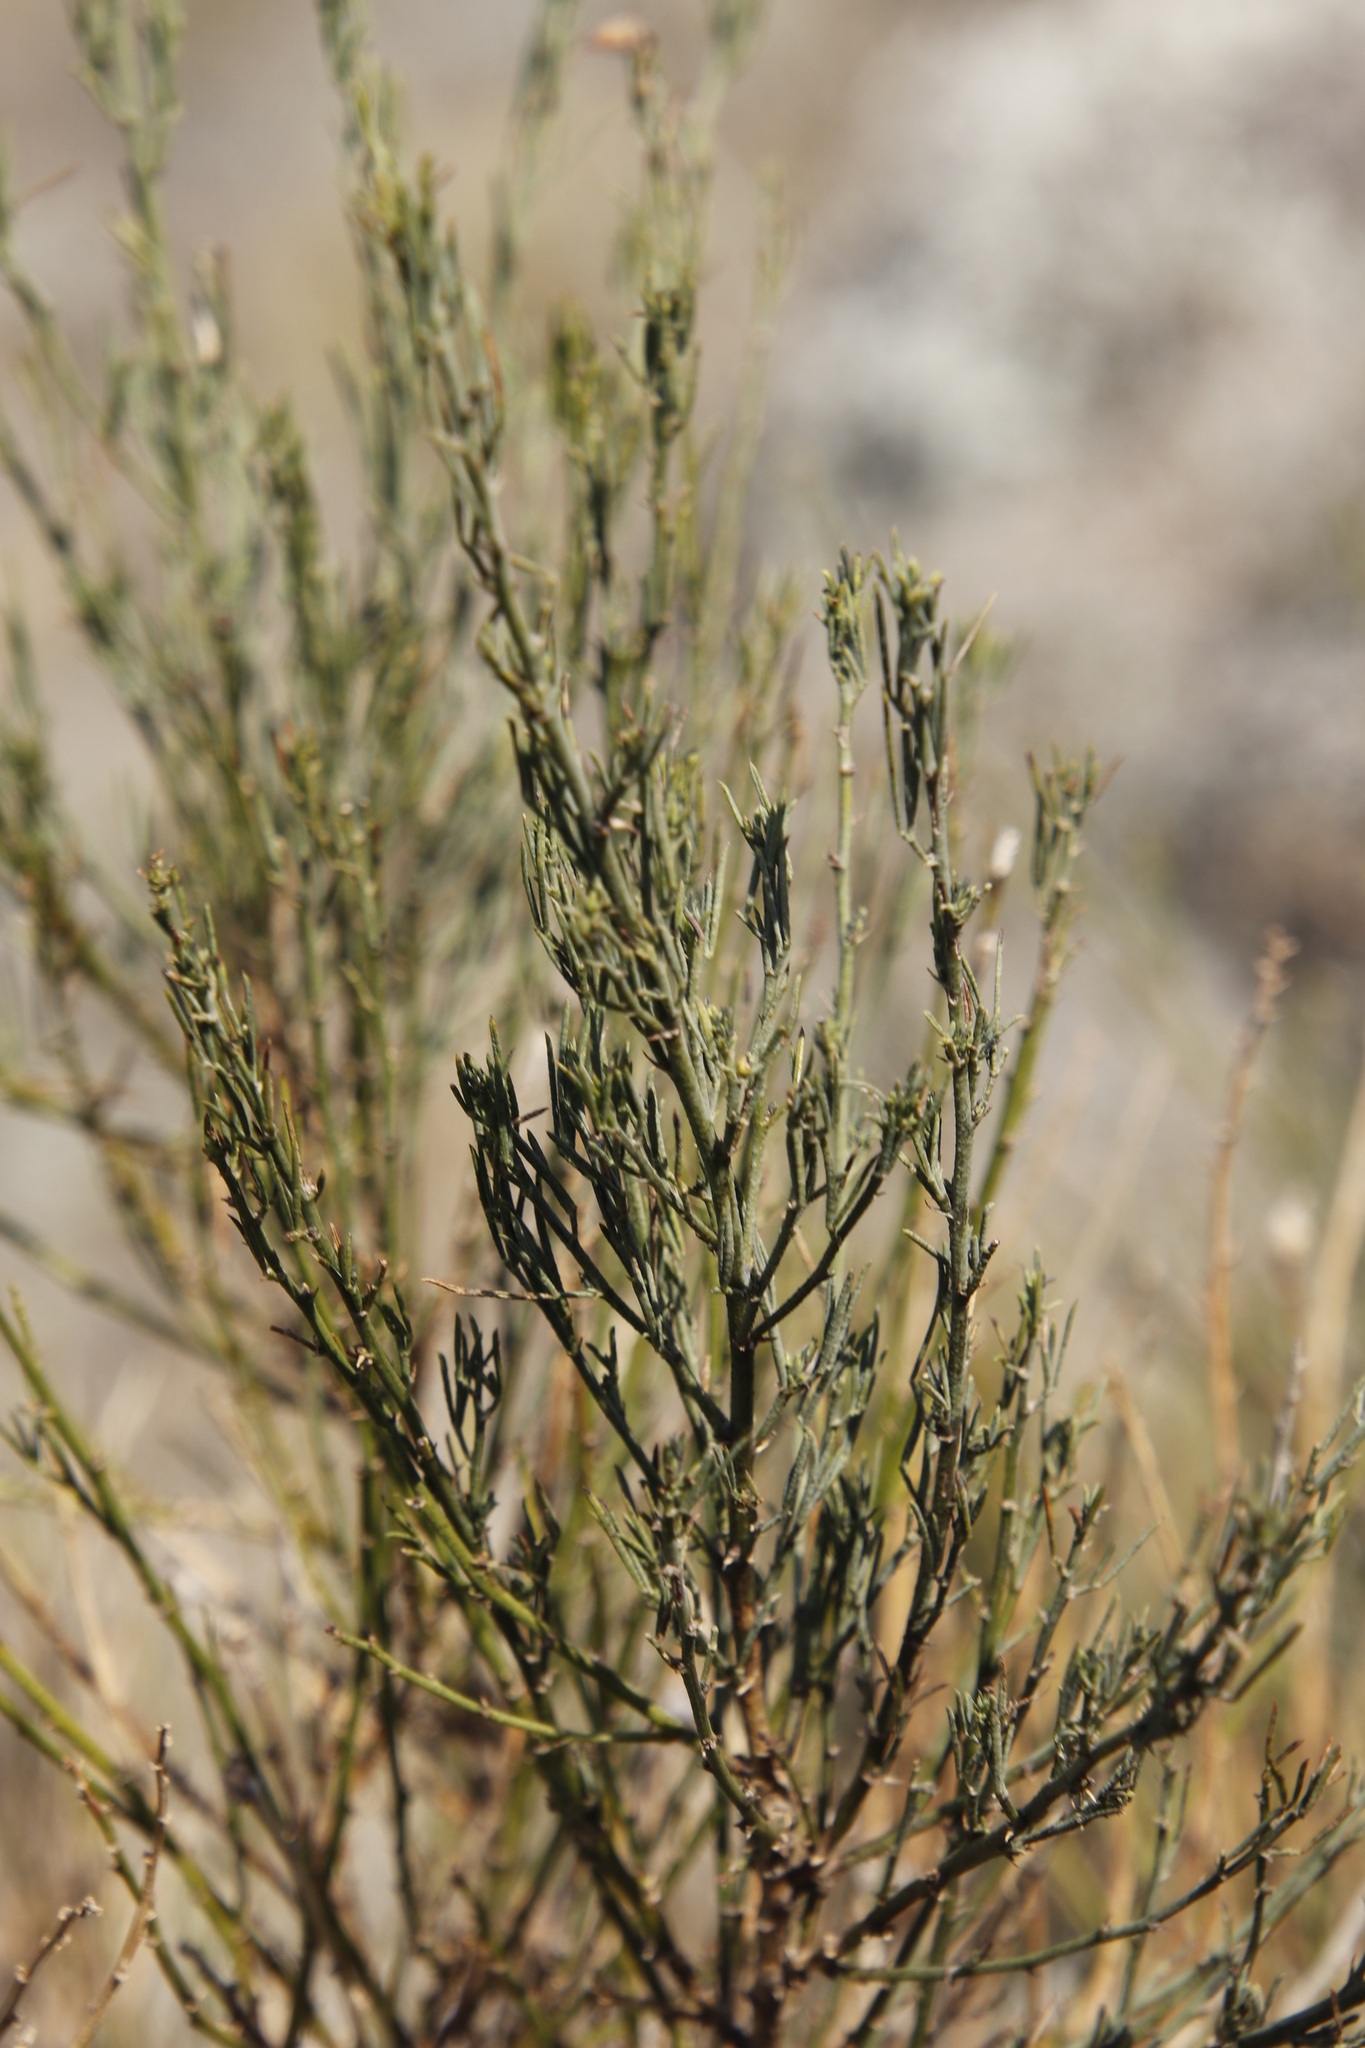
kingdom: Plantae
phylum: Tracheophyta
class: Magnoliopsida
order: Fabales
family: Fabaceae
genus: Psoralea
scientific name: Psoralea
